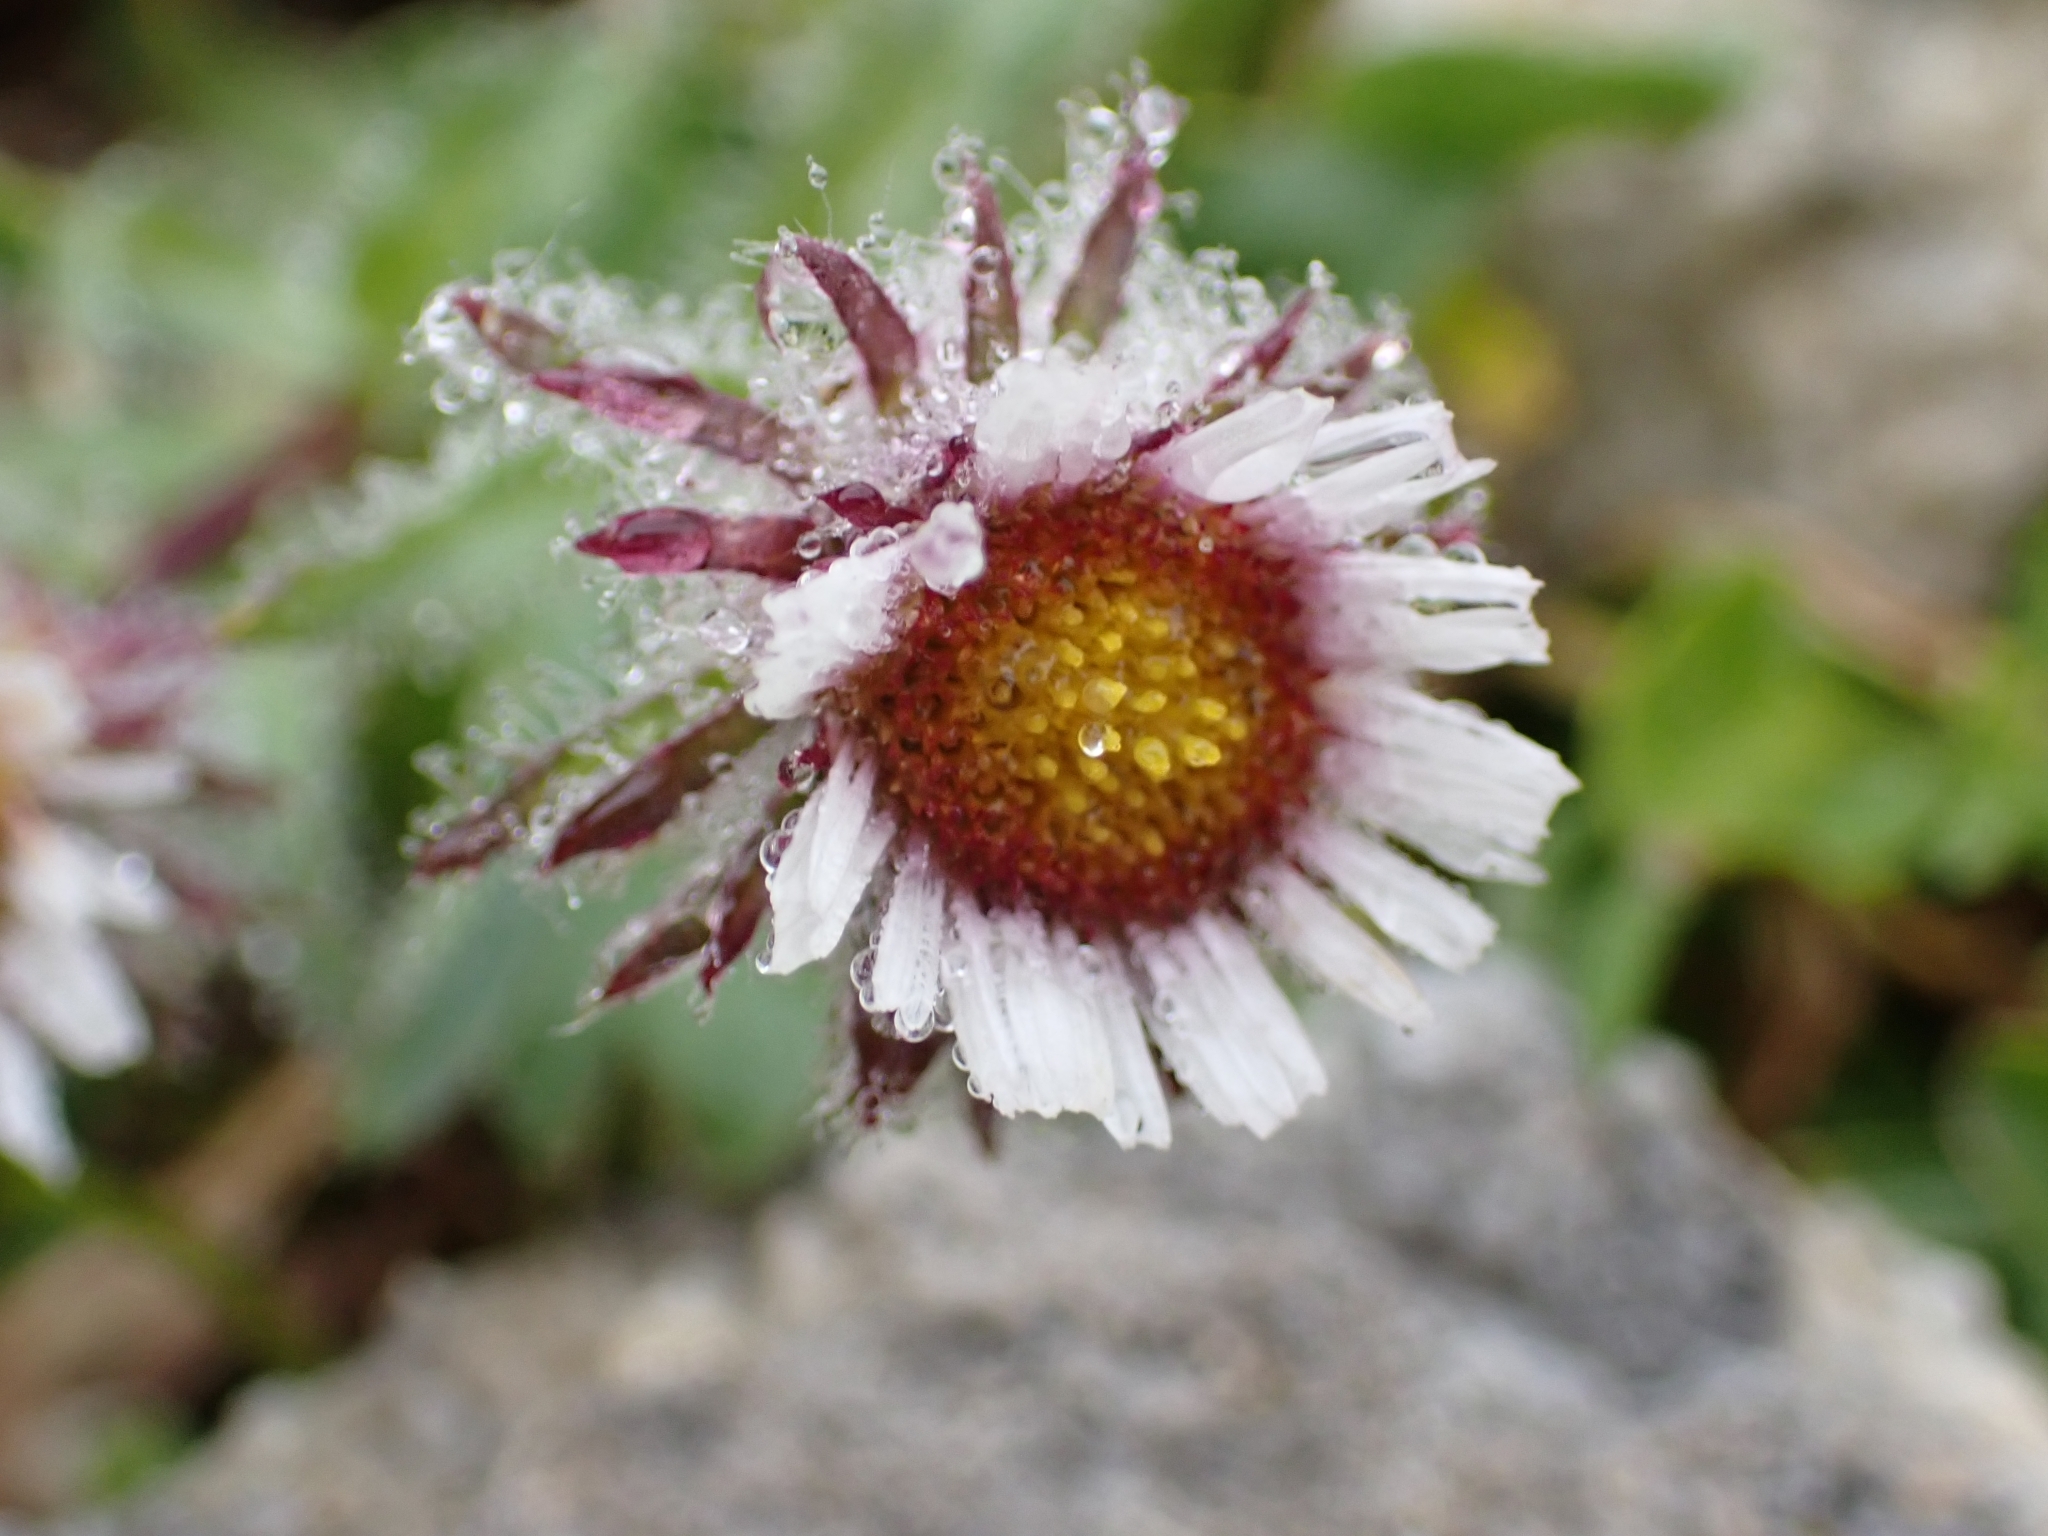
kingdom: Plantae
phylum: Tracheophyta
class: Magnoliopsida
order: Asterales
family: Asteraceae
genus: Erigeron
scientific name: Erigeron uniflorus
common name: Northern daisy
